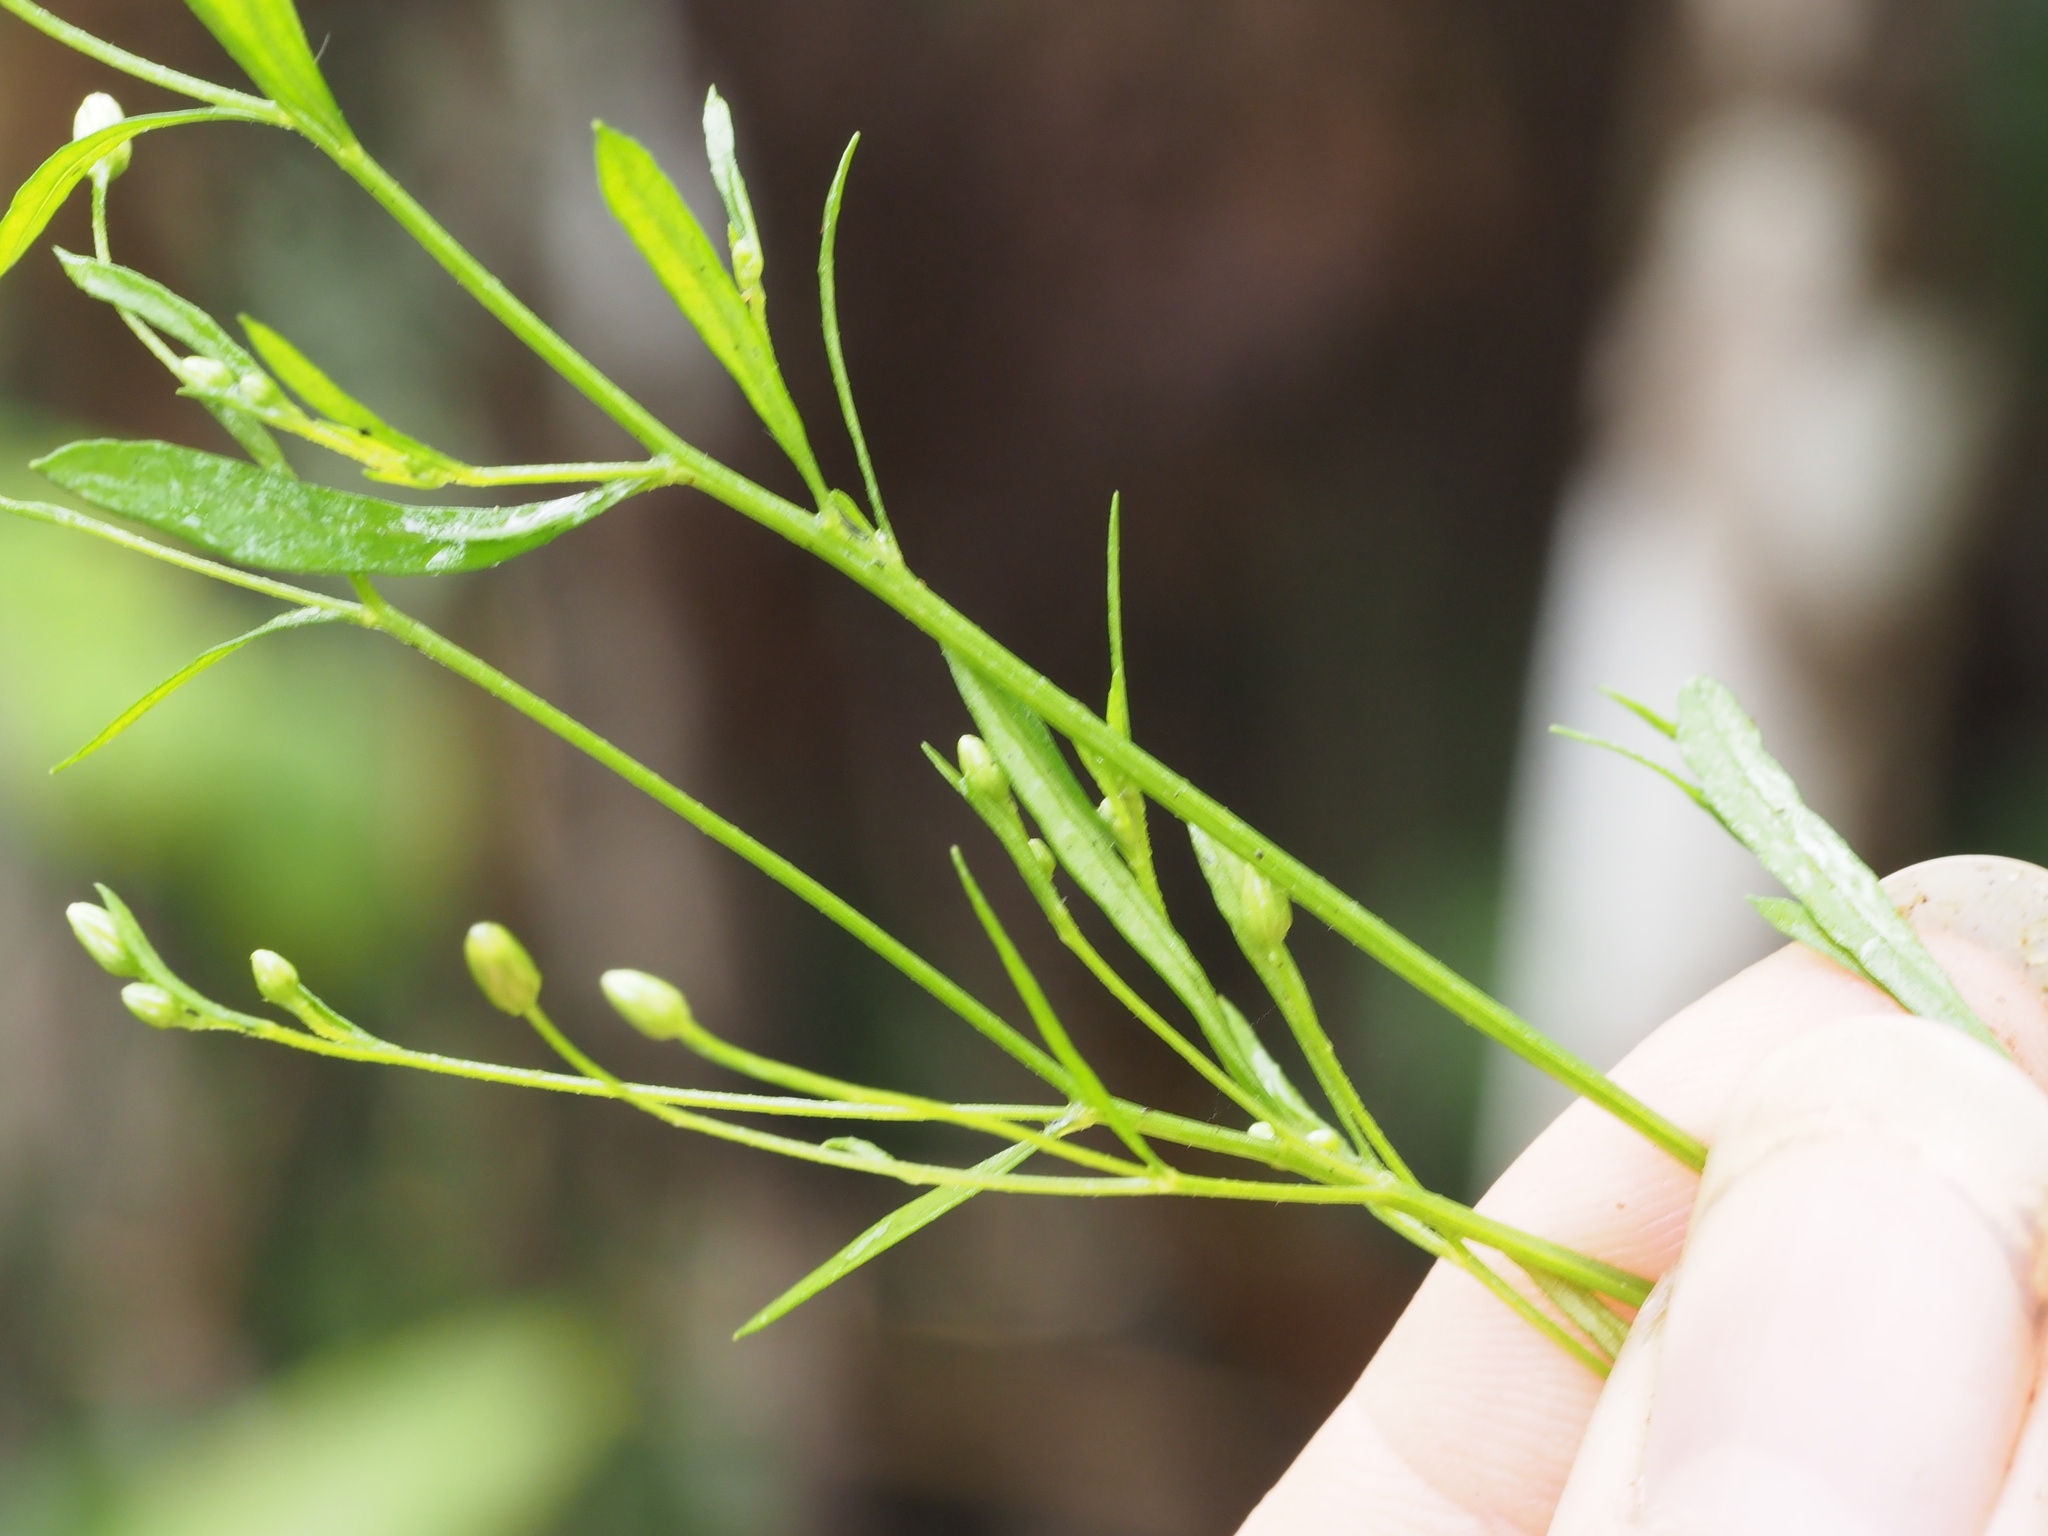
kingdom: Plantae
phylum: Tracheophyta
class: Magnoliopsida
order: Asterales
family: Asteraceae
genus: Erigeron
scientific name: Erigeron canadensis
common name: Canadian fleabane
